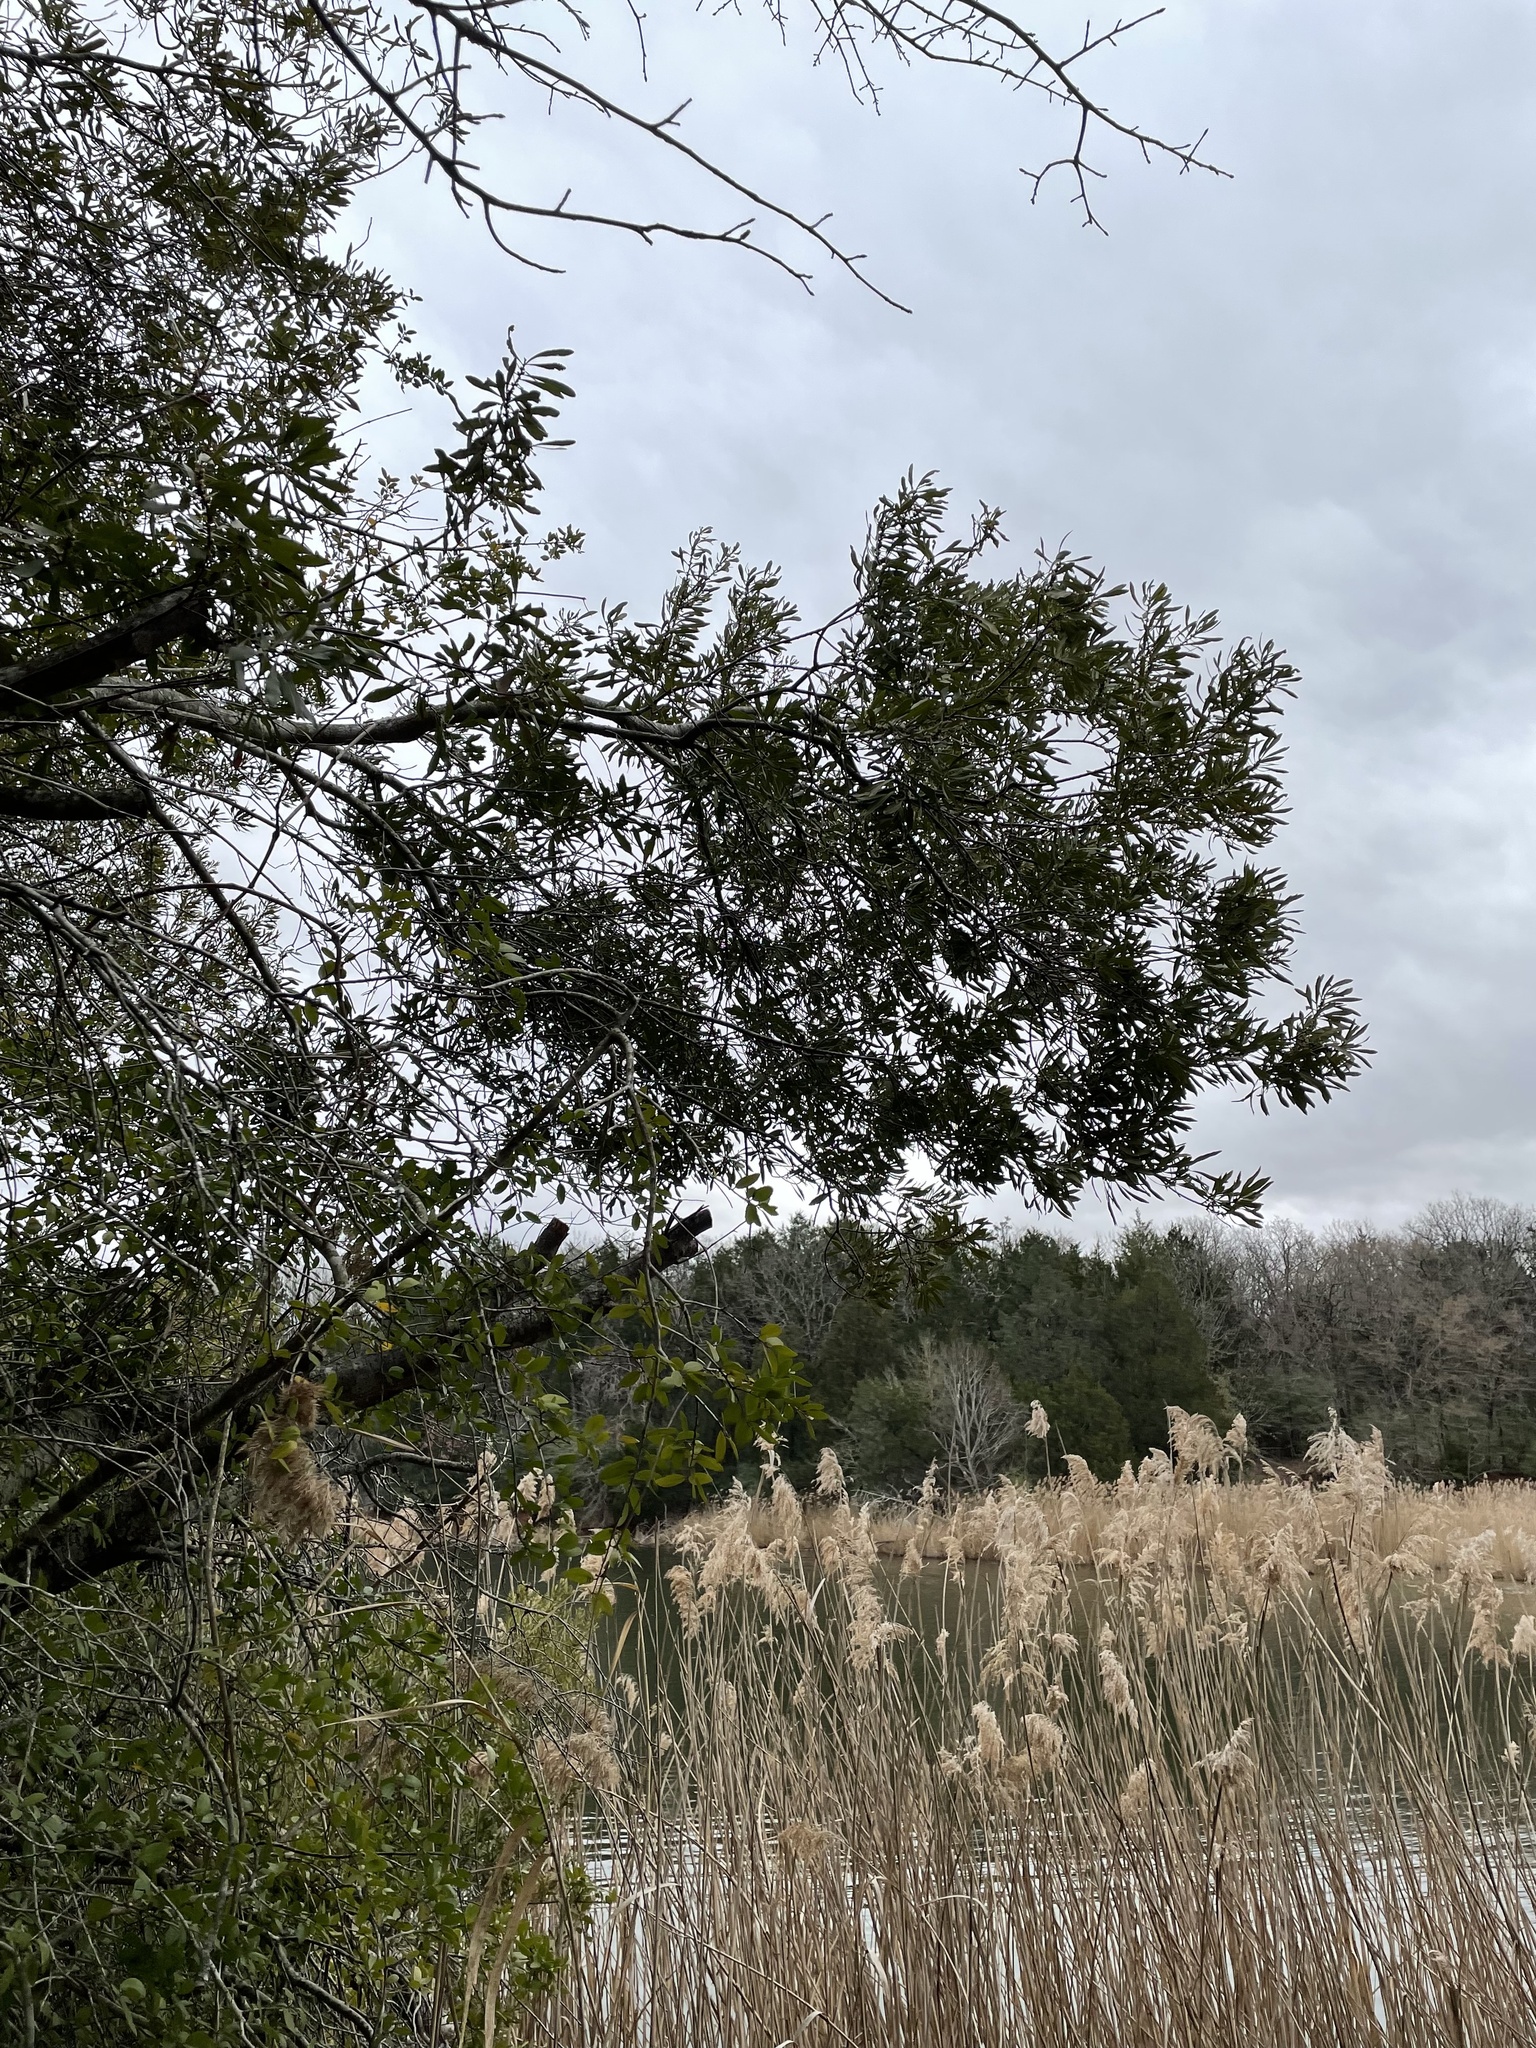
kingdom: Plantae
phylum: Tracheophyta
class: Magnoliopsida
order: Fagales
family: Myricaceae
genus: Morella
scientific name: Morella cerifera
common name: Wax myrtle
